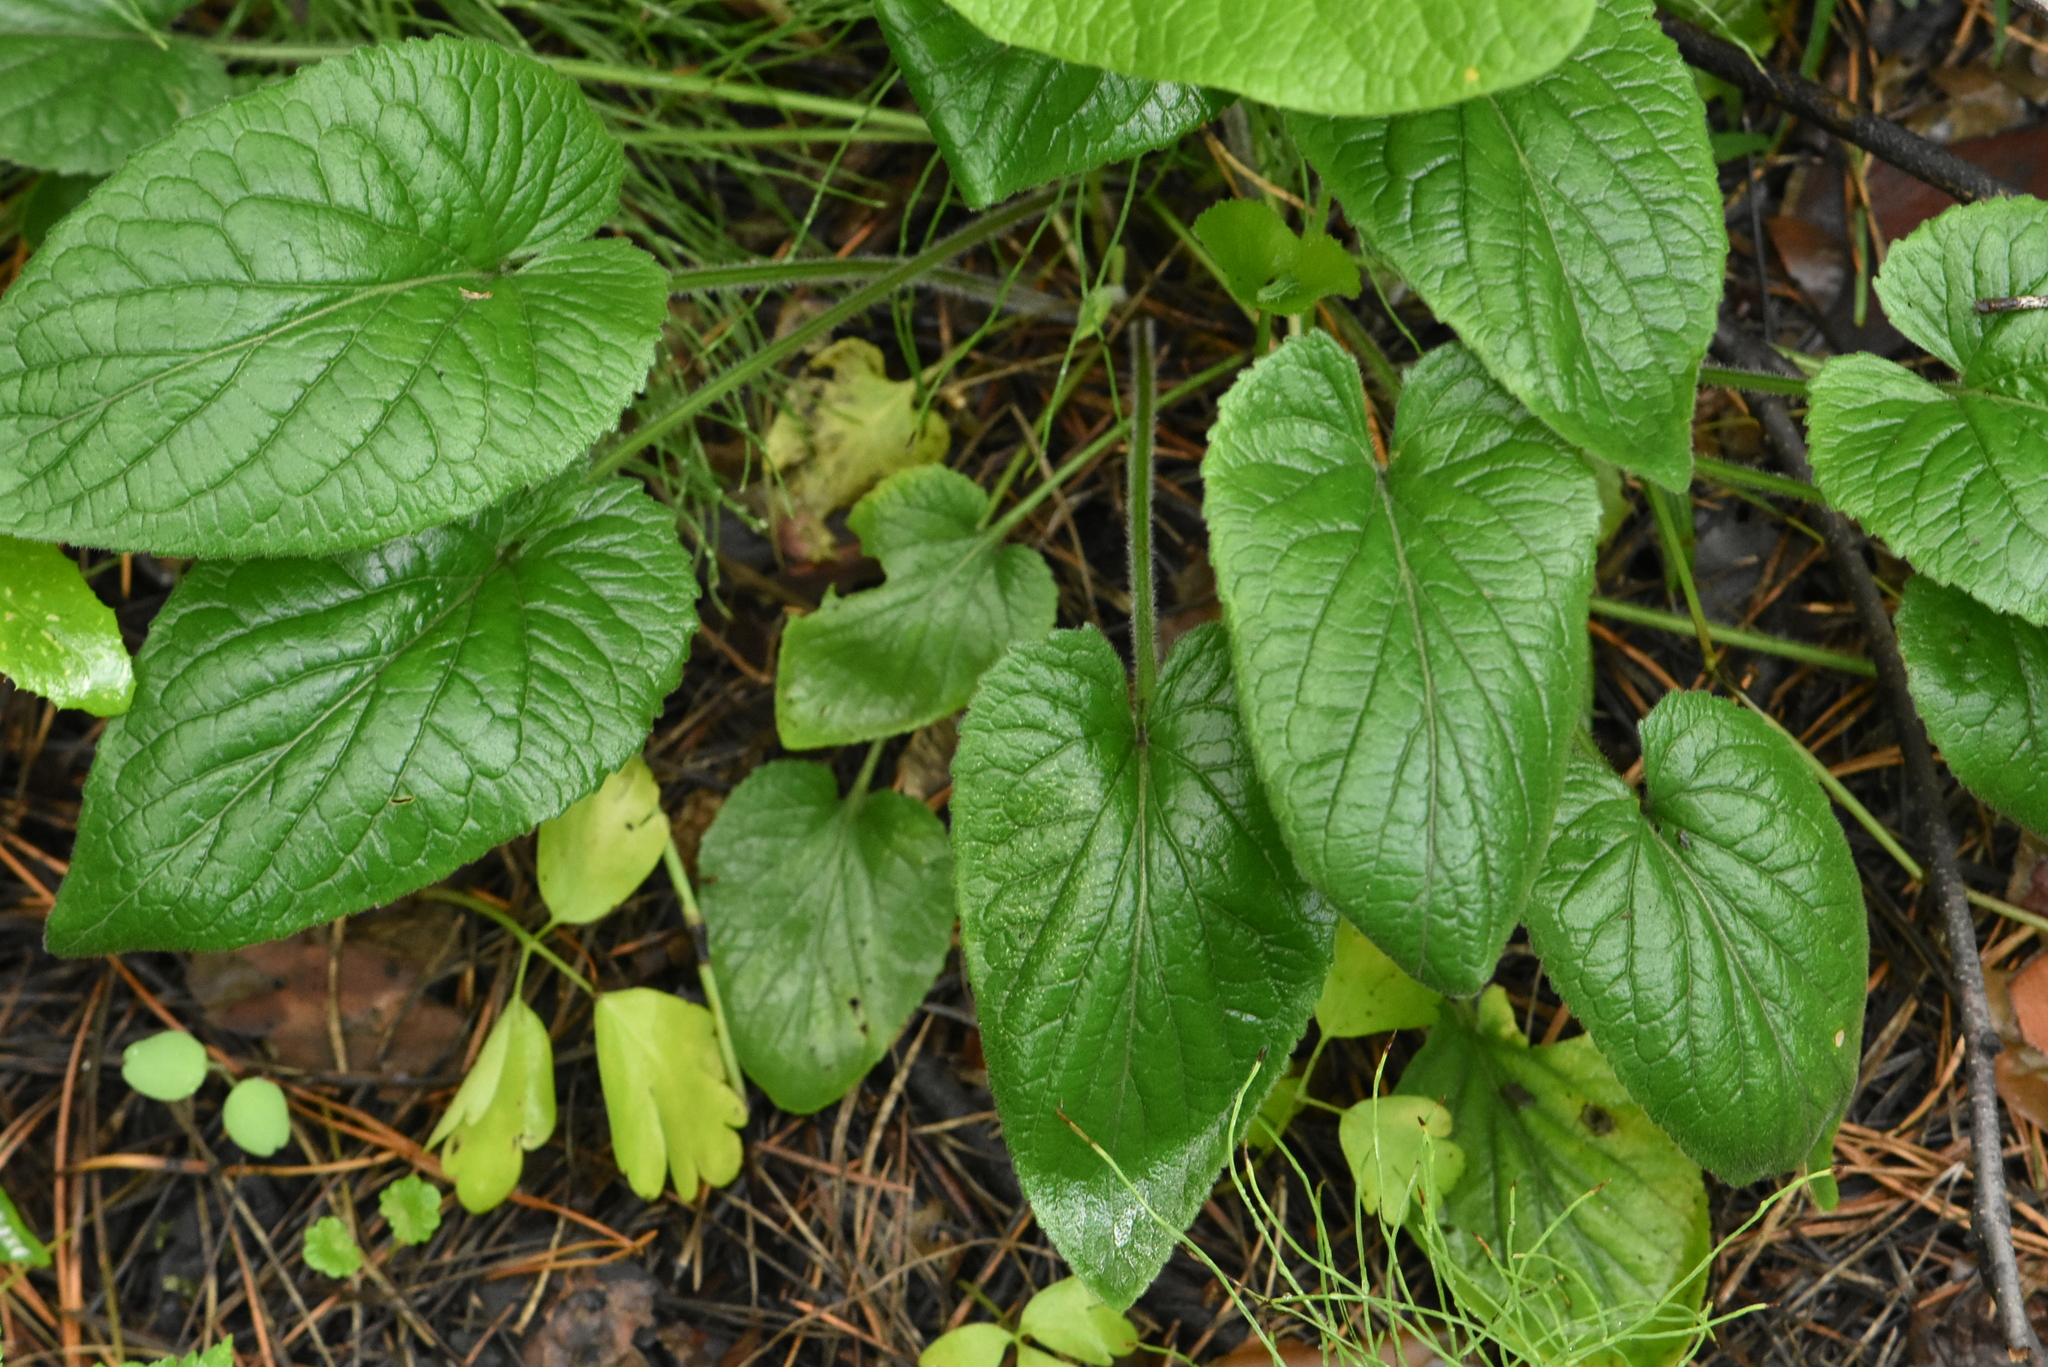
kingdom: Plantae
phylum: Tracheophyta
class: Magnoliopsida
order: Malpighiales
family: Violaceae
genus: Viola
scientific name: Viola hirta
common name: Hairy violet
